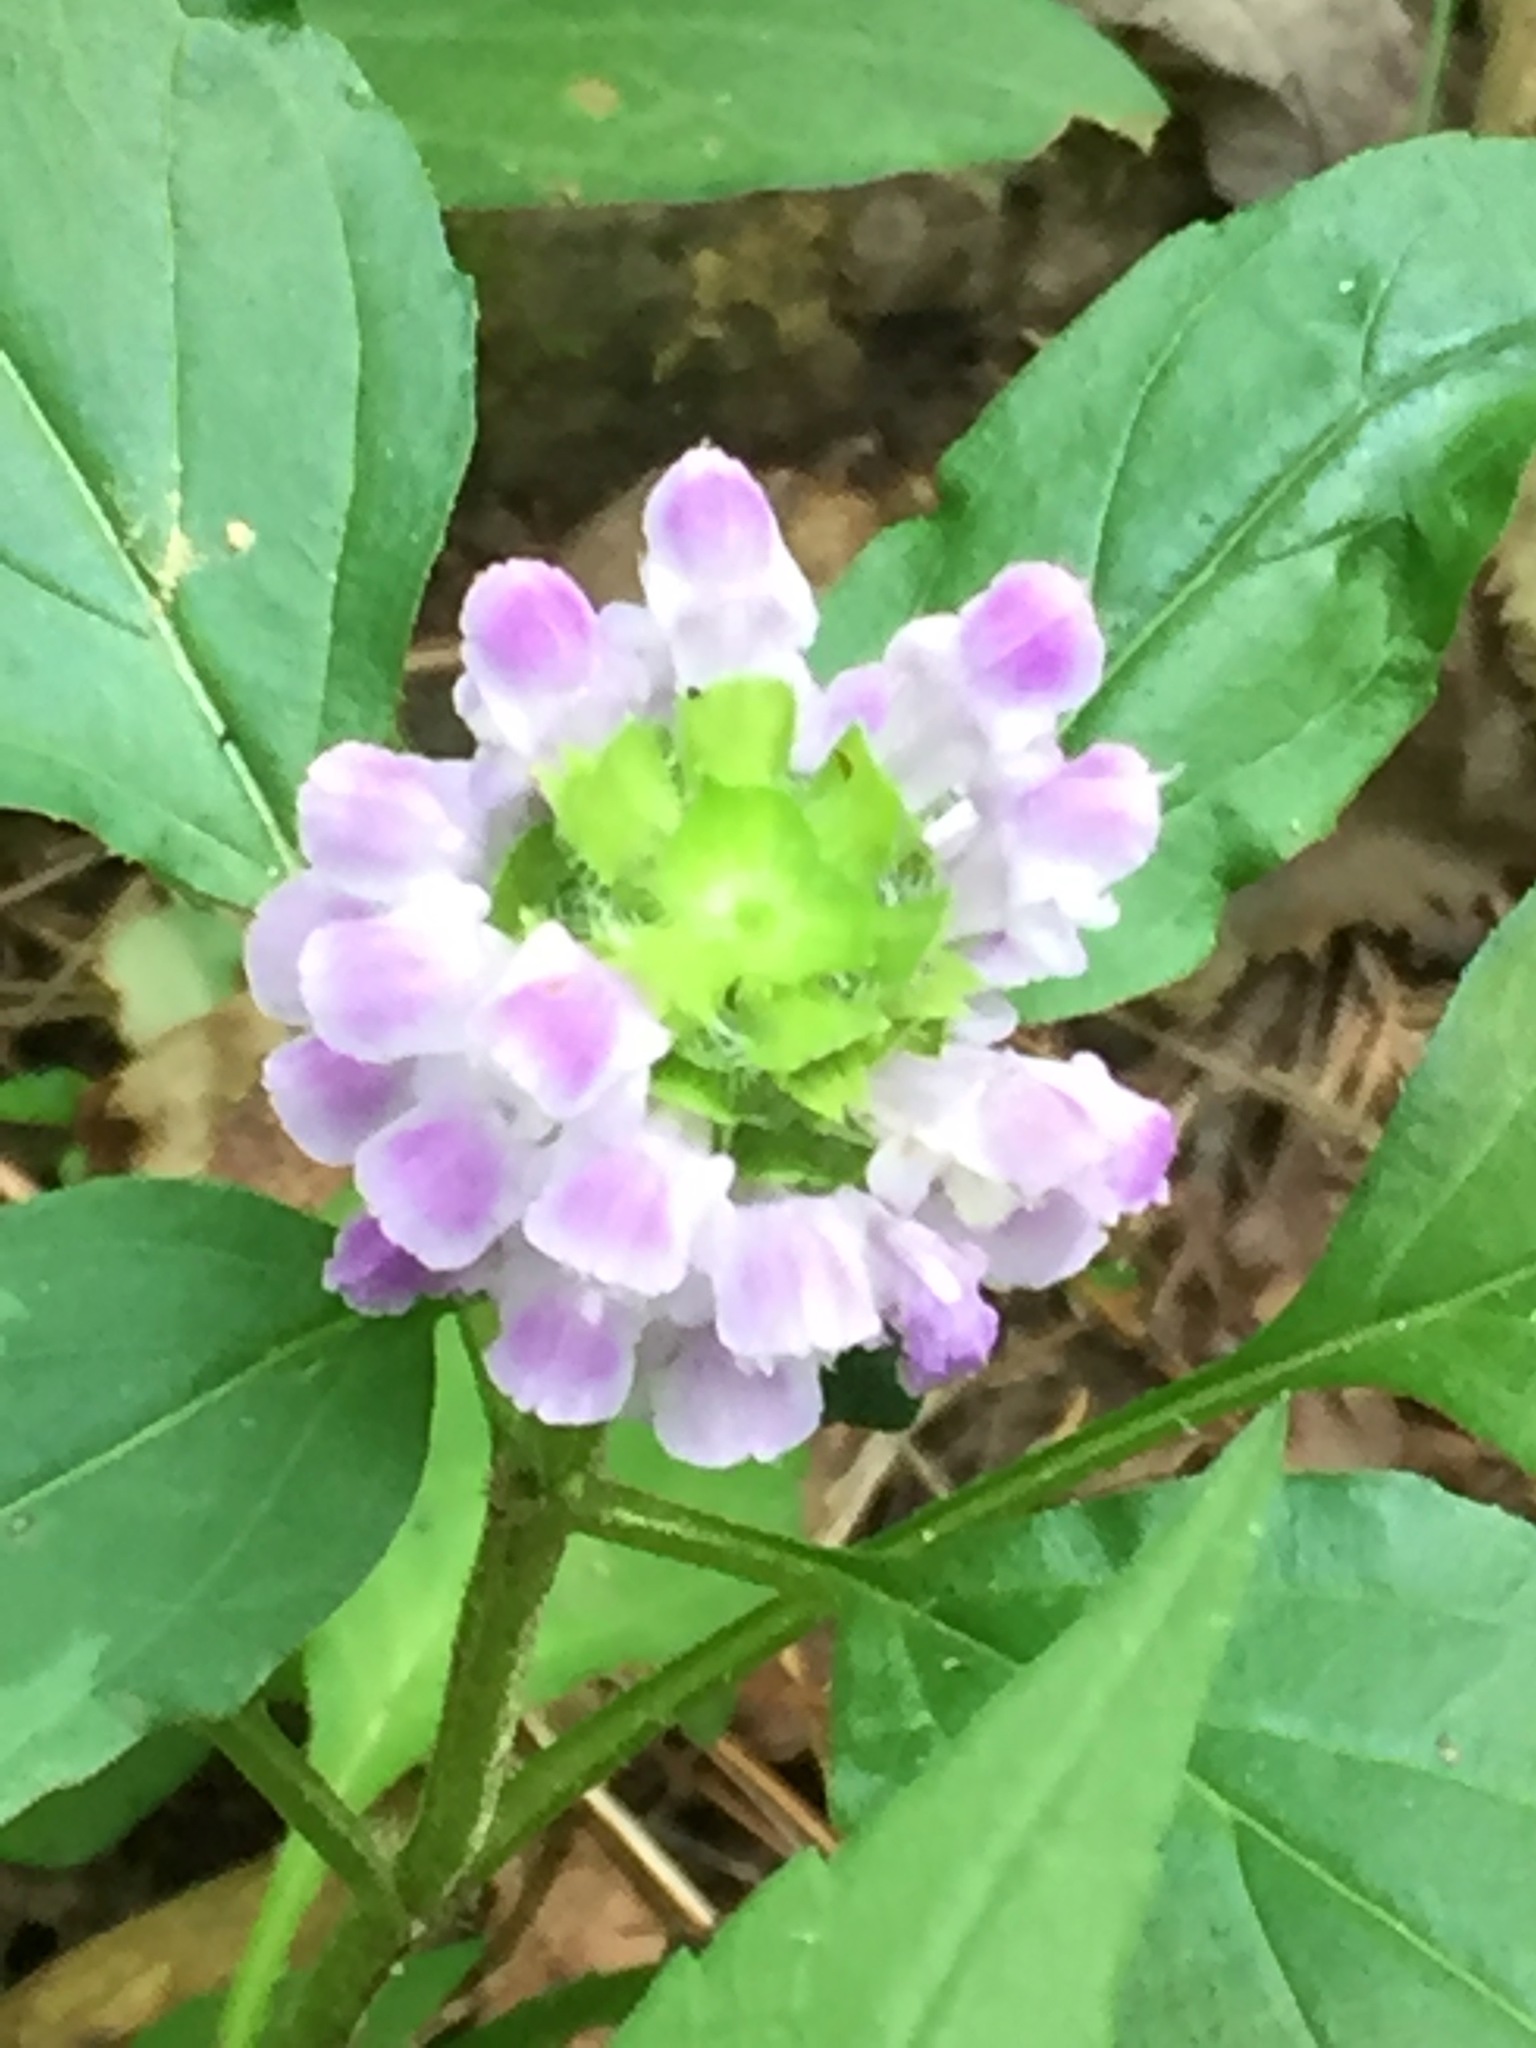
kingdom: Plantae
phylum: Tracheophyta
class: Magnoliopsida
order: Lamiales
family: Lamiaceae
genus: Prunella
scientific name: Prunella vulgaris
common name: Heal-all
